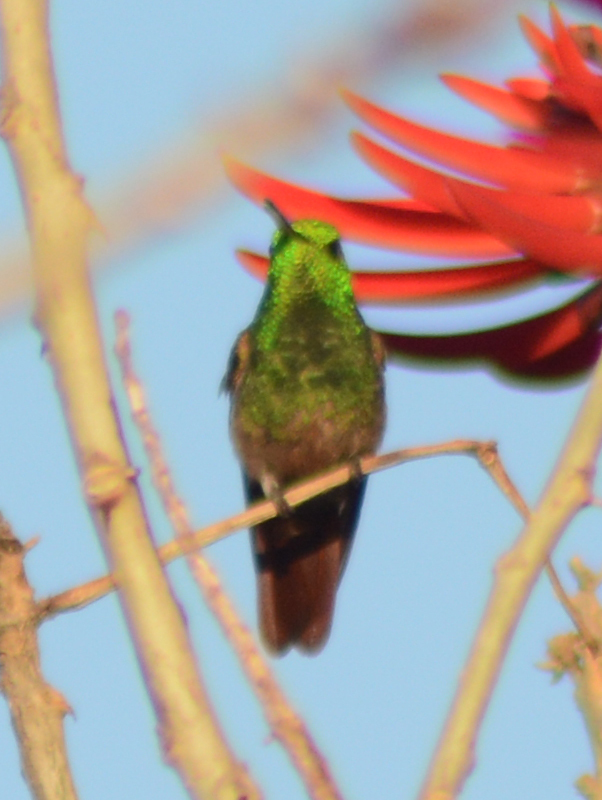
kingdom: Animalia
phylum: Chordata
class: Aves
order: Apodiformes
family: Trochilidae
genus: Saucerottia
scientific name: Saucerottia beryllina
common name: Berylline hummingbird
